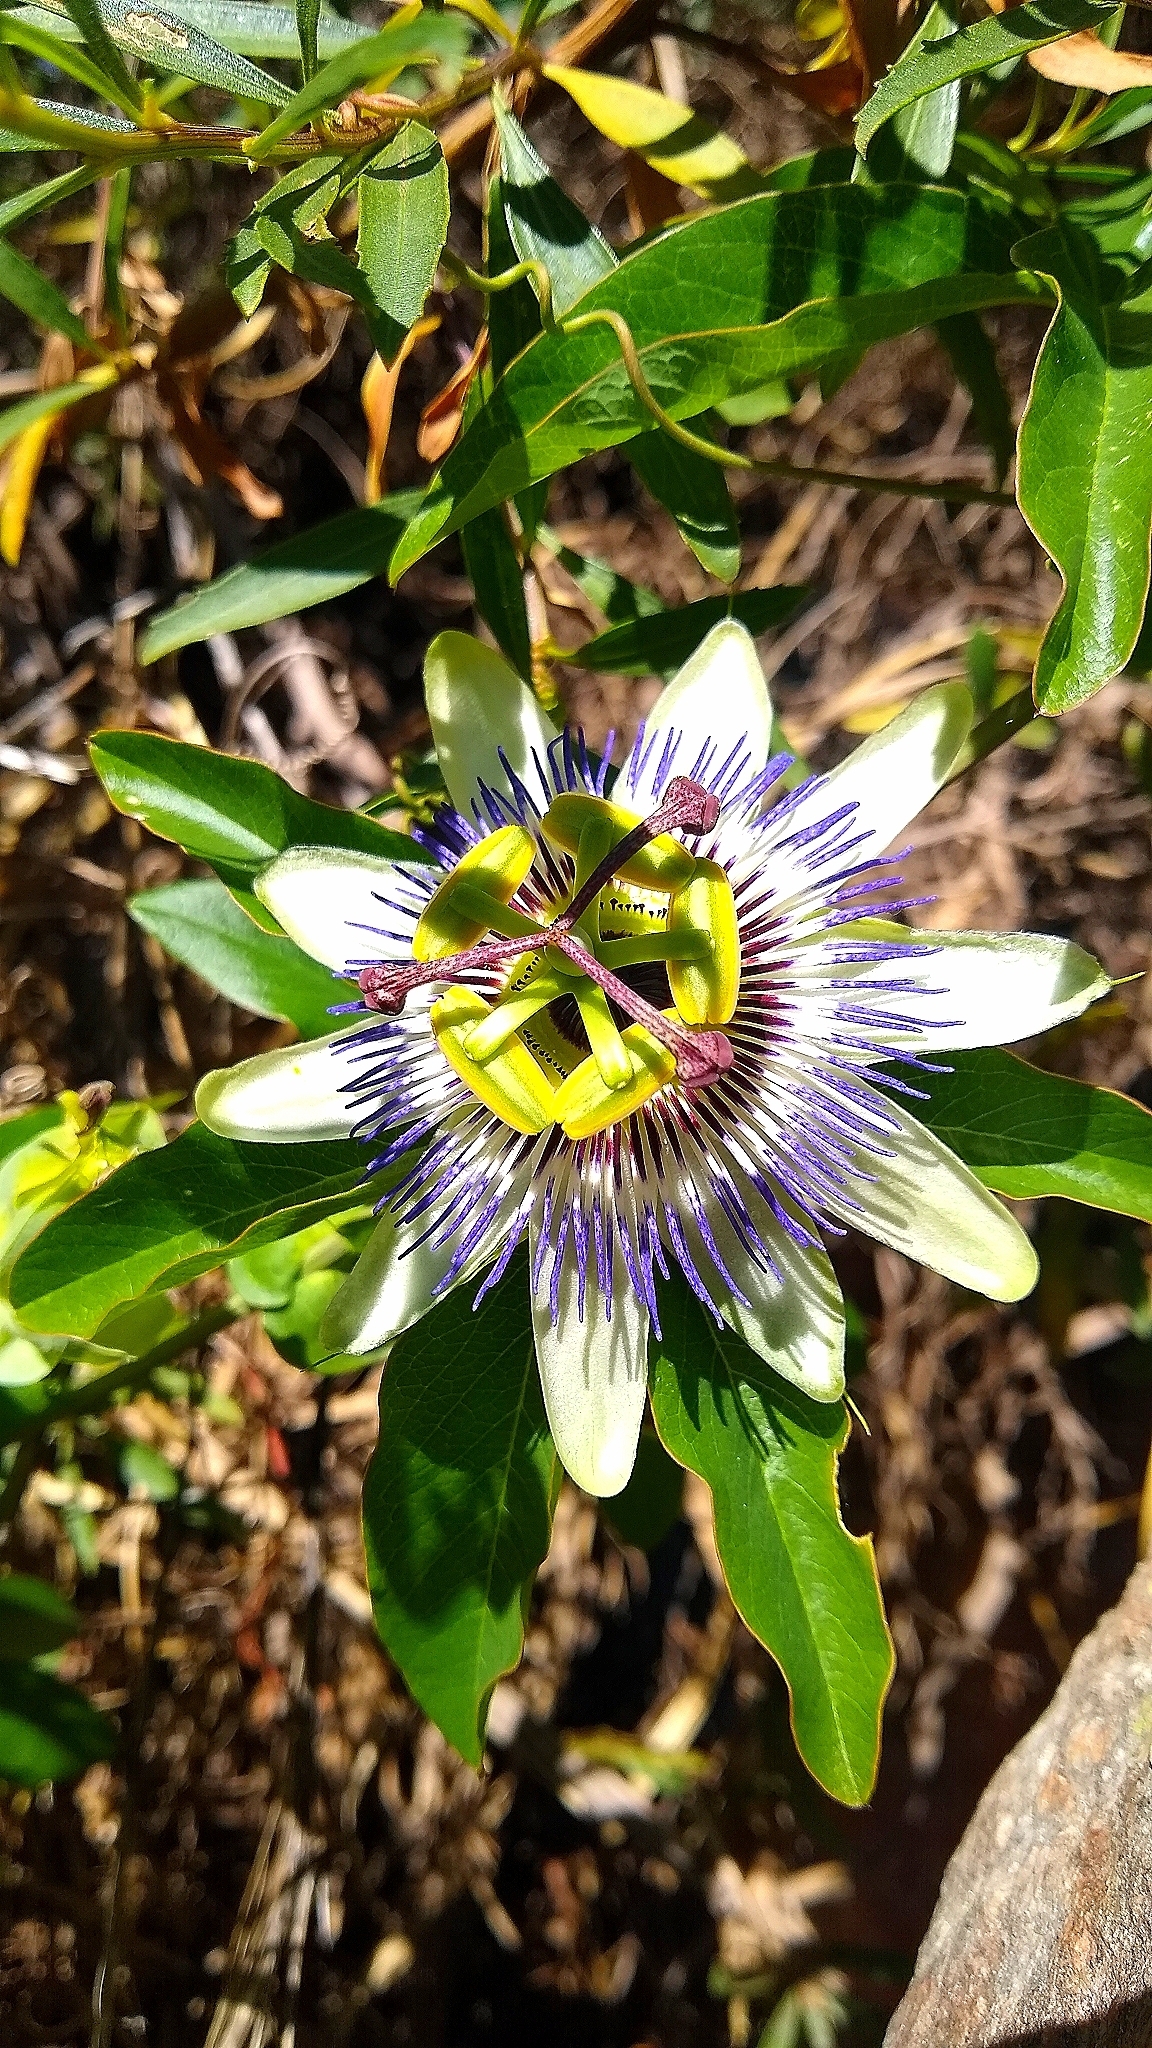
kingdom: Plantae
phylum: Tracheophyta
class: Magnoliopsida
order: Malpighiales
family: Passifloraceae
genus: Passiflora
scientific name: Passiflora caerulea
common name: Blue passionflower
